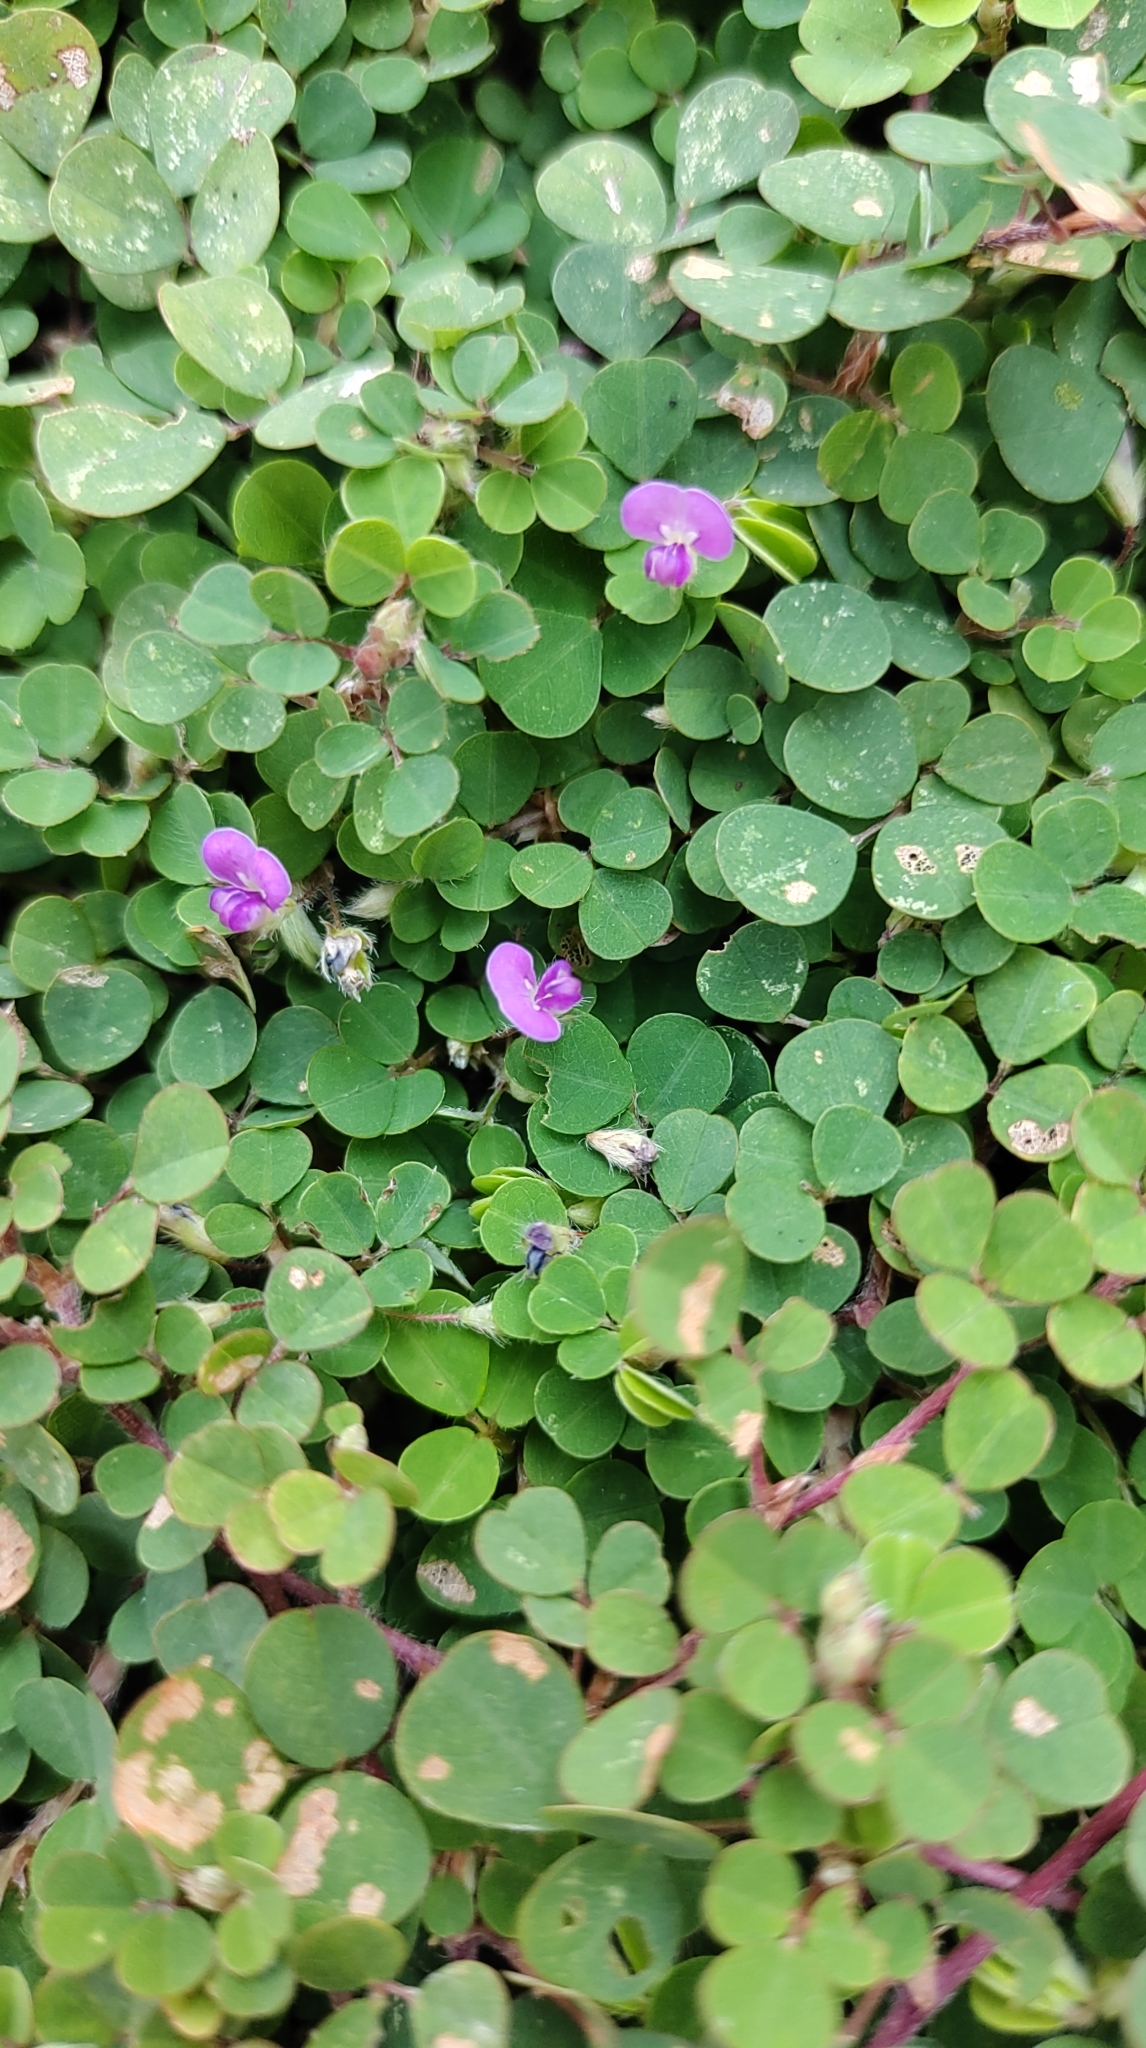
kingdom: Plantae
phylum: Tracheophyta
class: Magnoliopsida
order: Fabales
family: Fabaceae
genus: Grona
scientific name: Grona triflora
